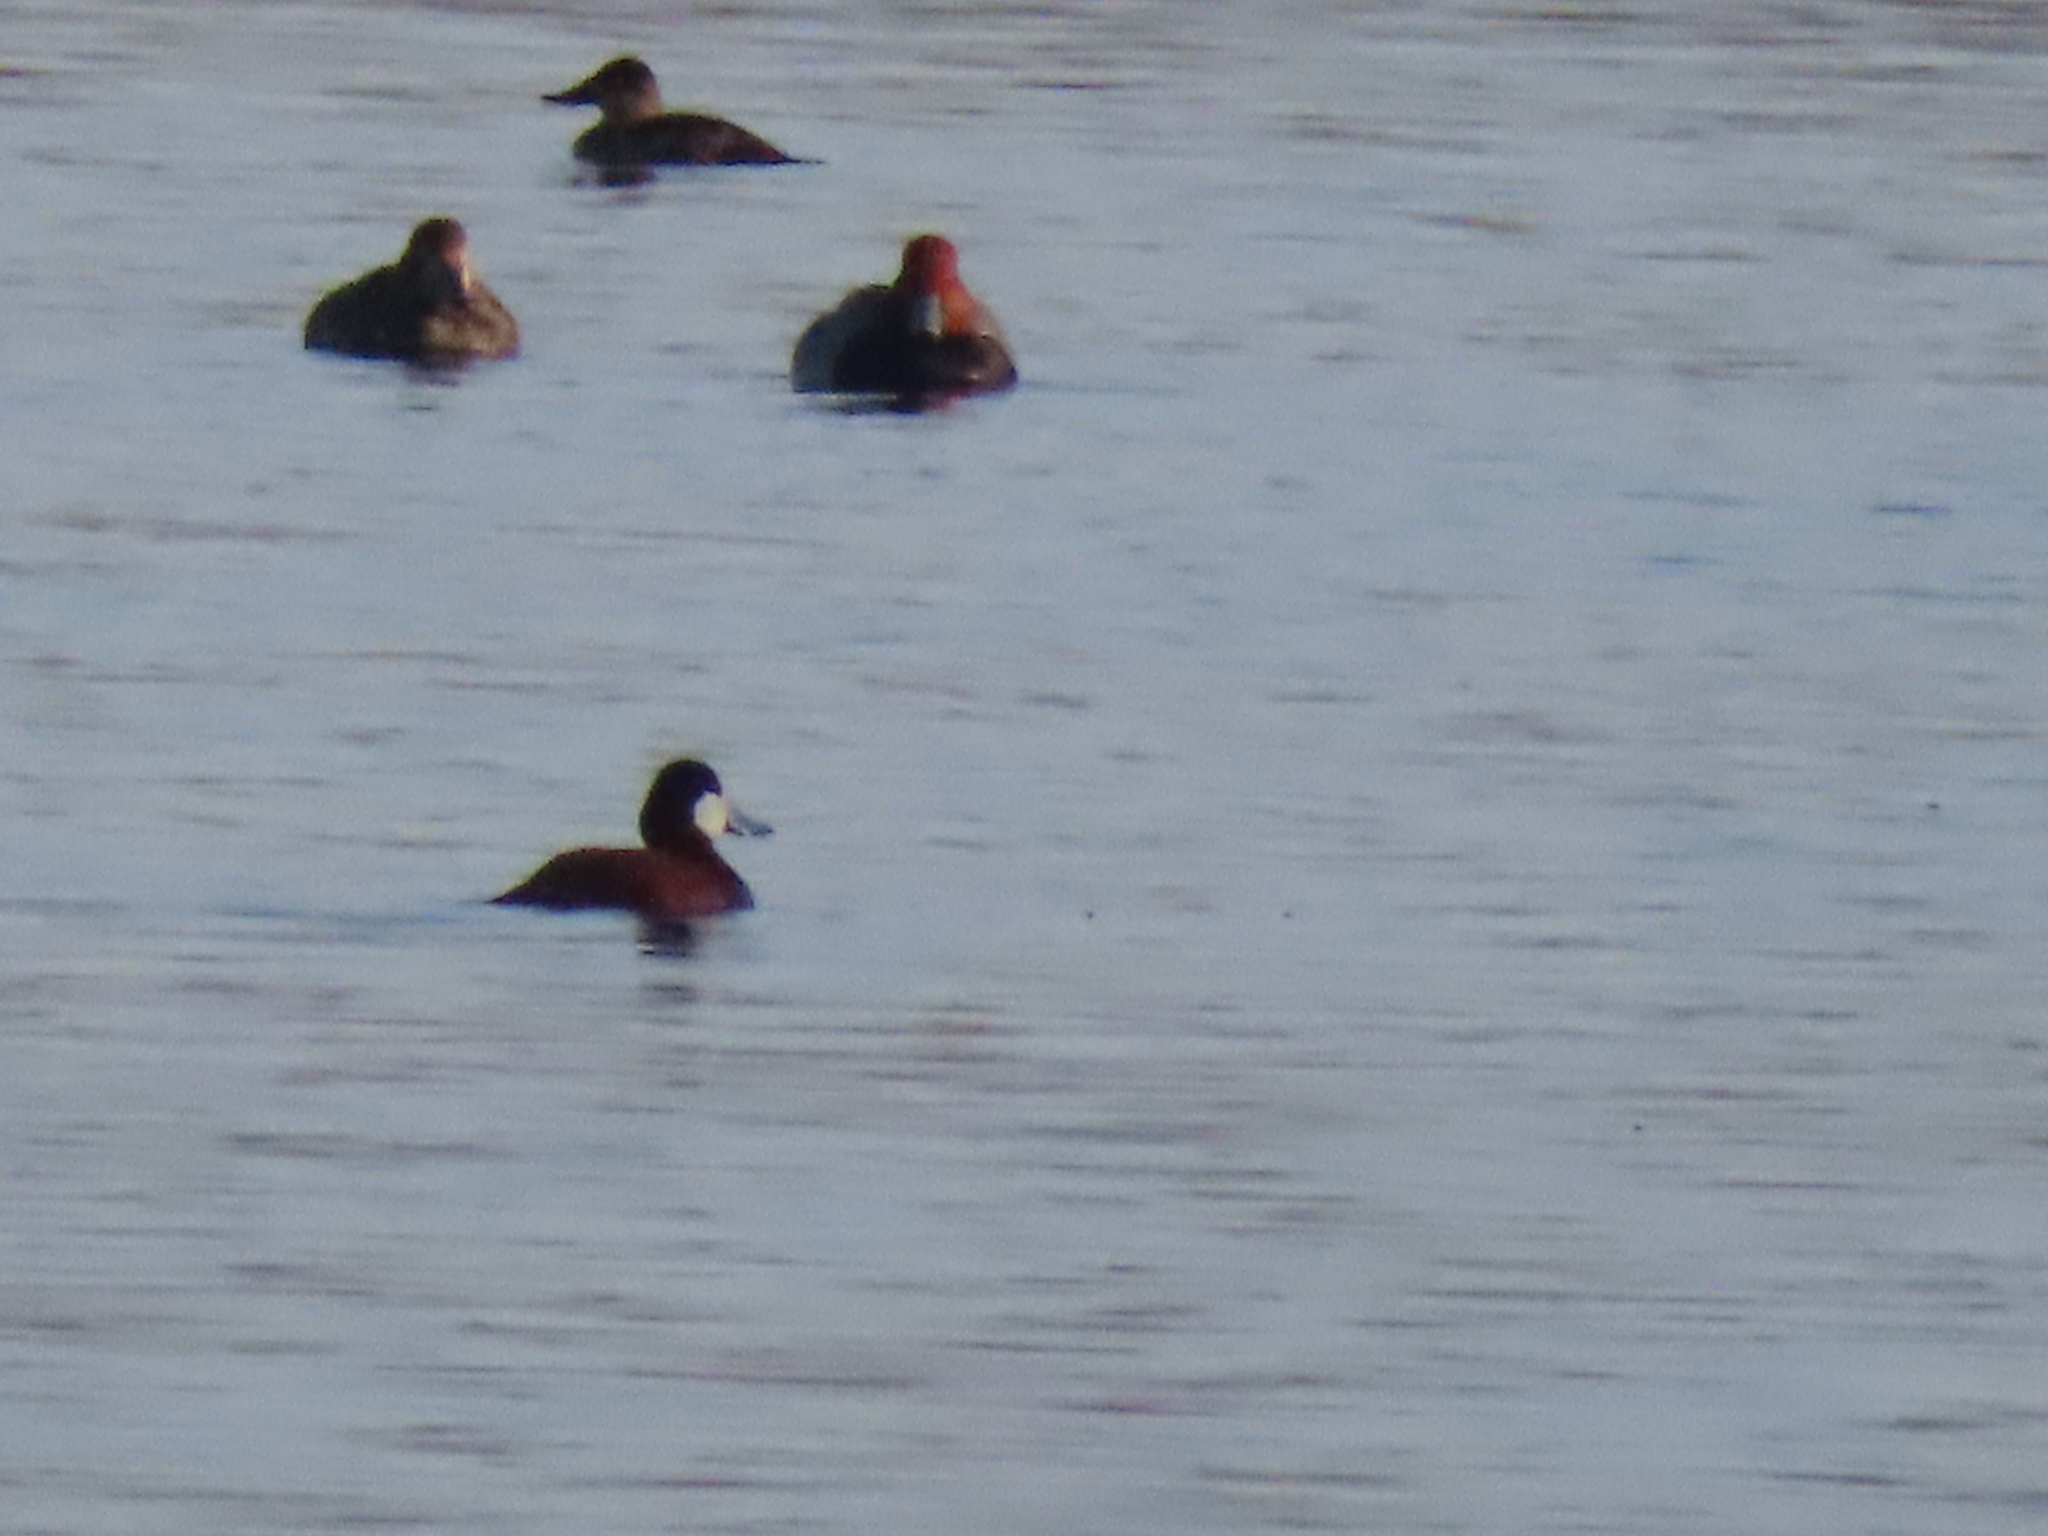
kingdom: Animalia
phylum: Chordata
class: Aves
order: Anseriformes
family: Anatidae
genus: Oxyura
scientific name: Oxyura jamaicensis
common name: Ruddy duck
